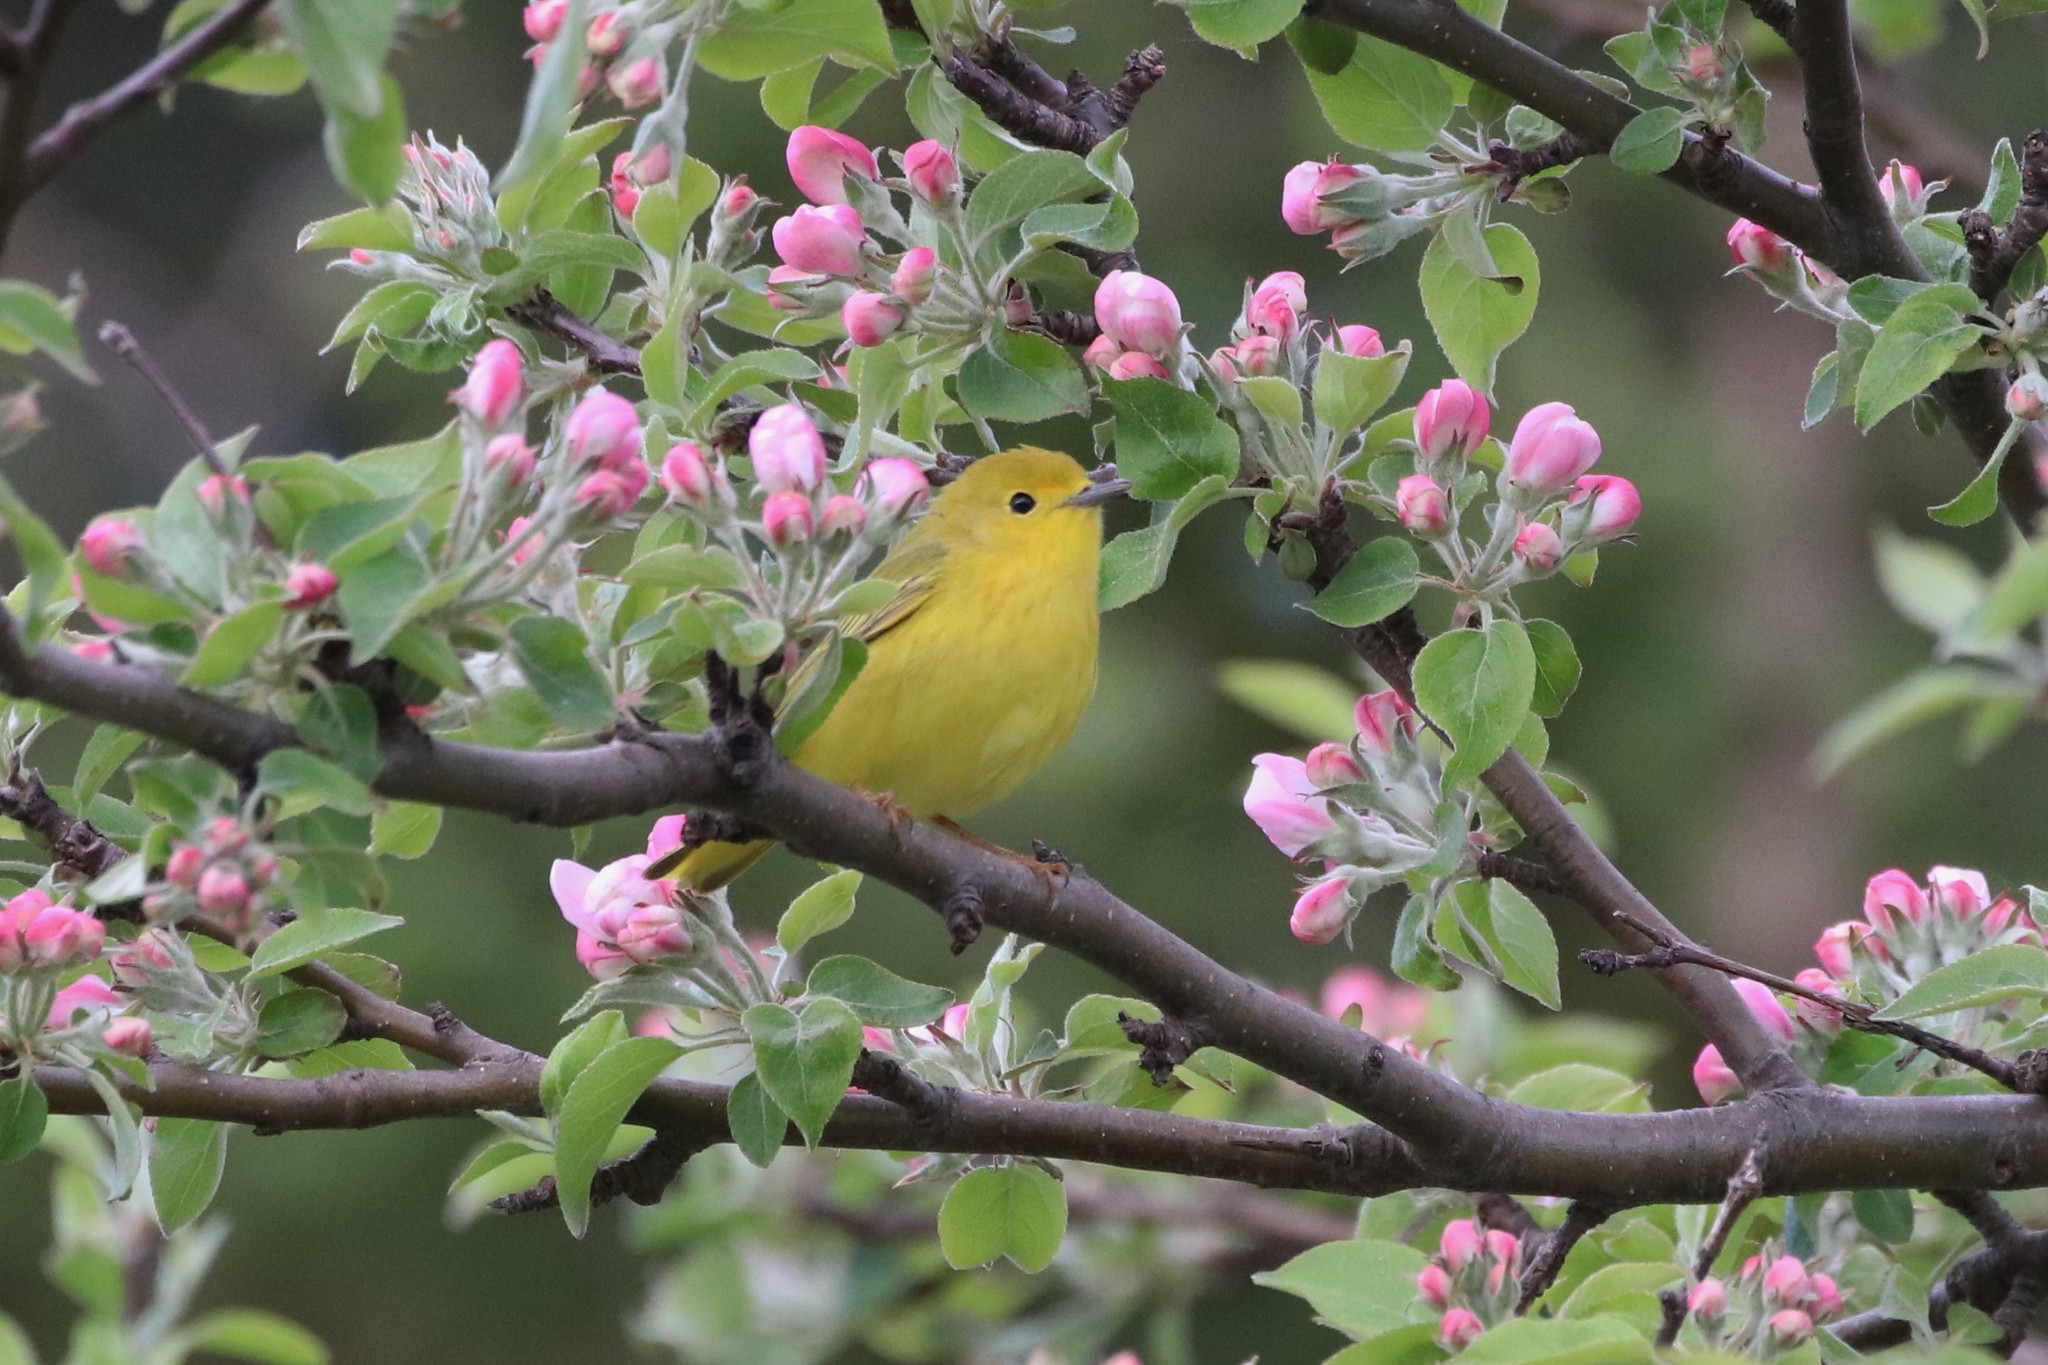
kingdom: Animalia
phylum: Chordata
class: Aves
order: Passeriformes
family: Parulidae
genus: Setophaga
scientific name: Setophaga petechia
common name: Yellow warbler
